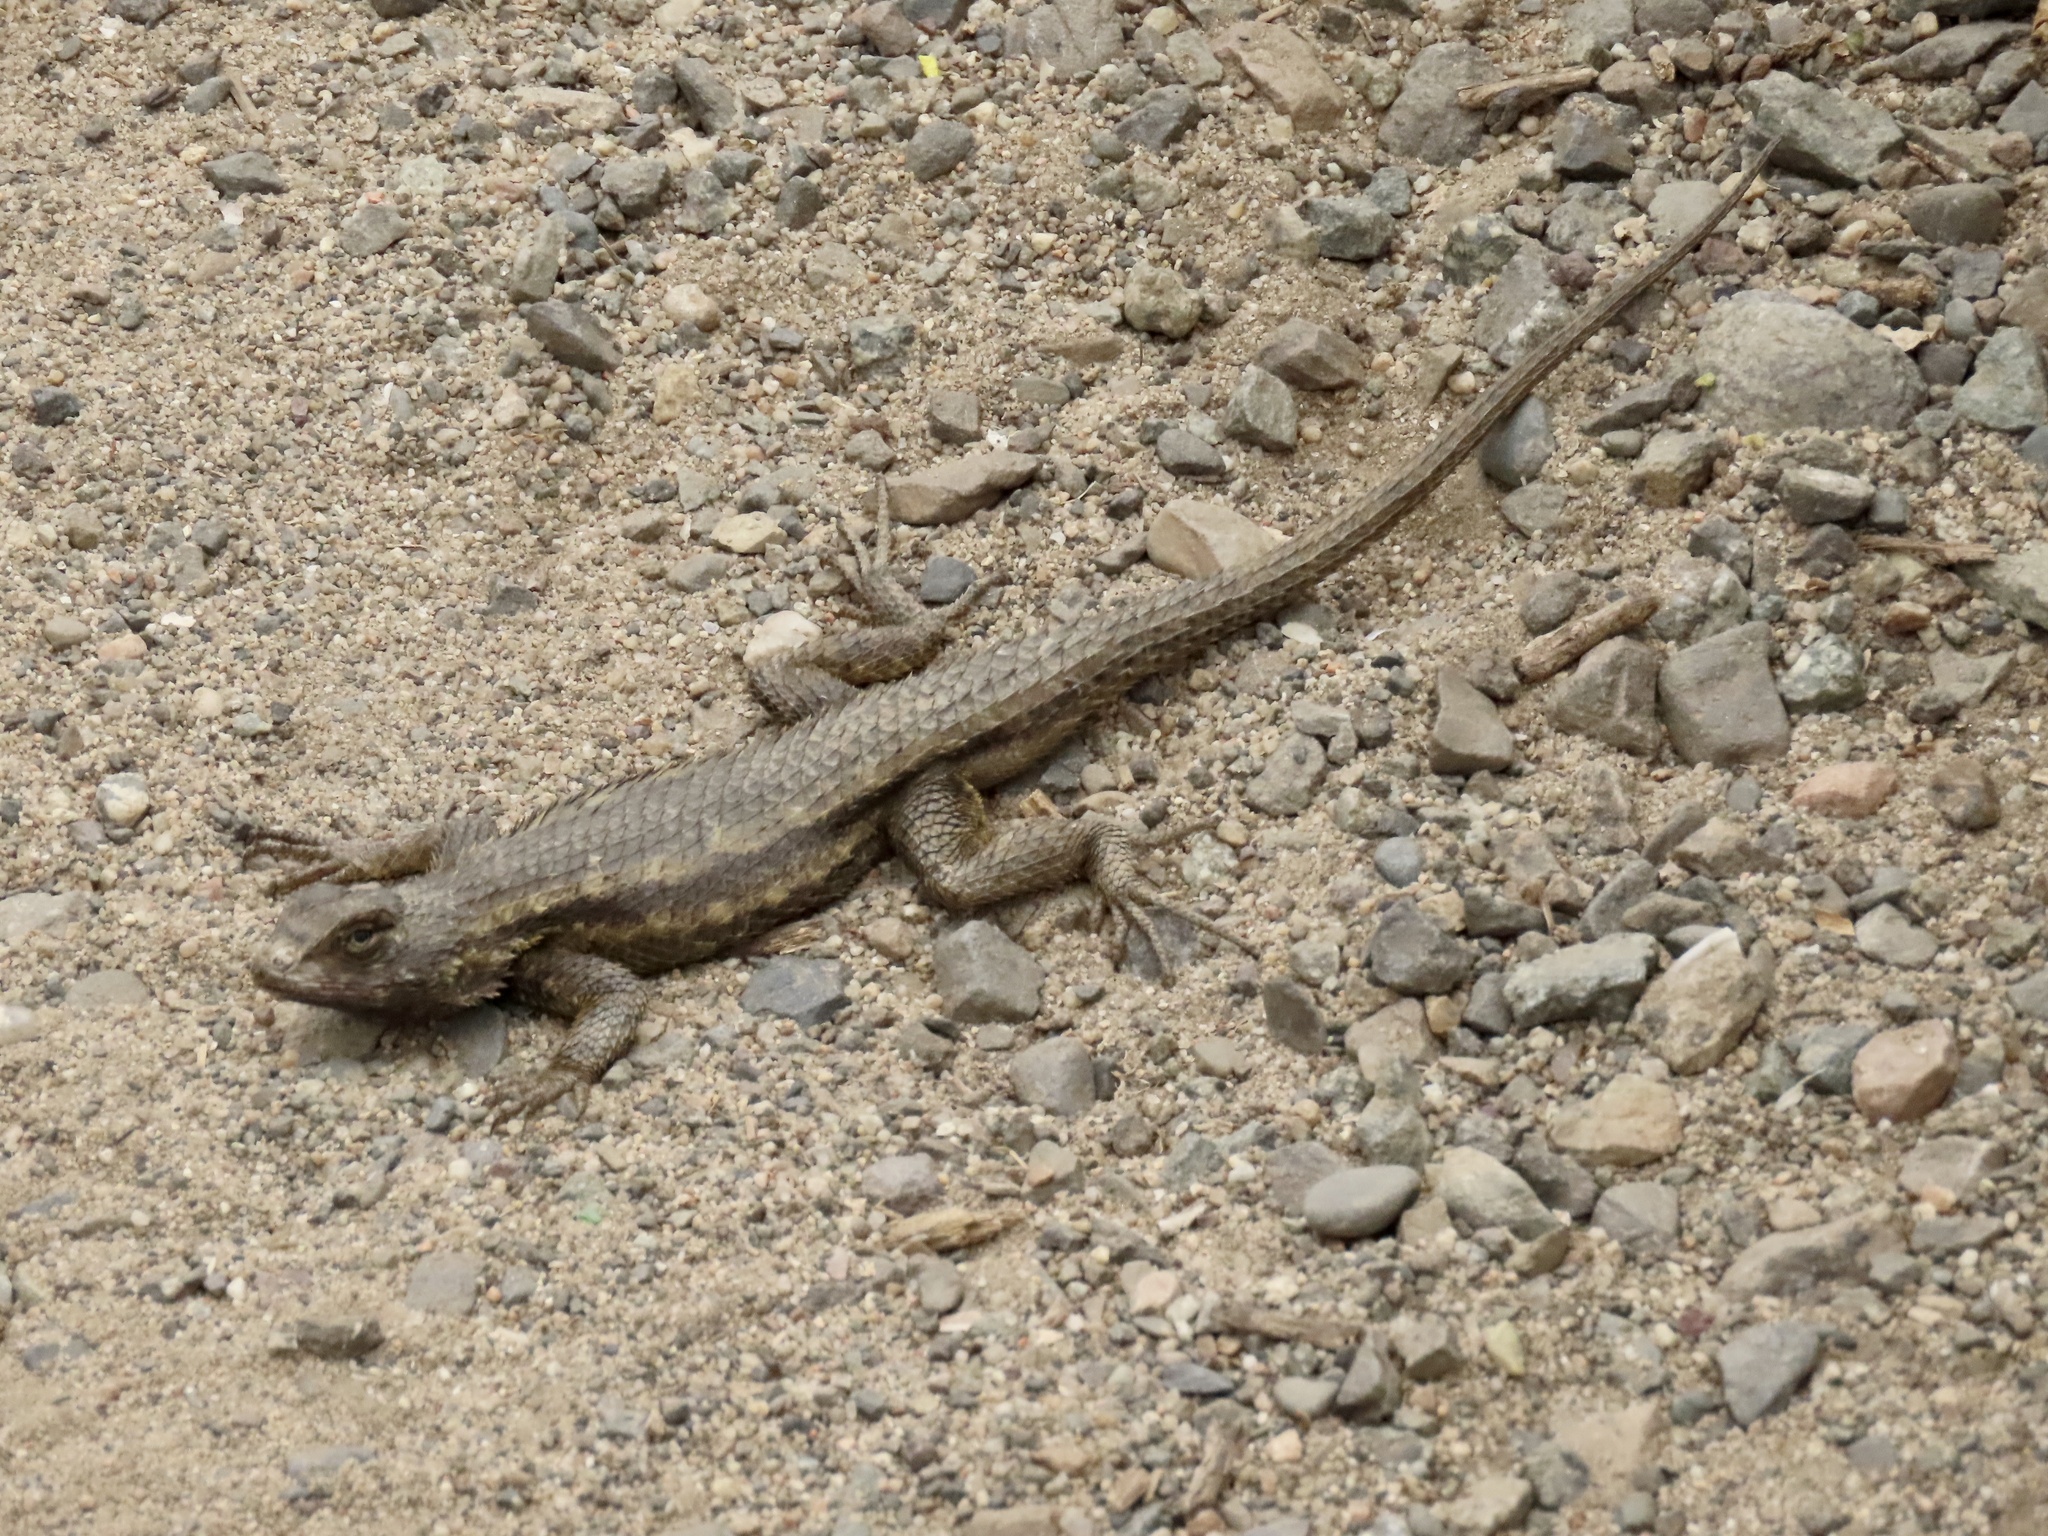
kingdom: Animalia
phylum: Chordata
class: Squamata
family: Phrynosomatidae
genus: Sceloporus
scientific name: Sceloporus occidentalis
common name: Western fence lizard
